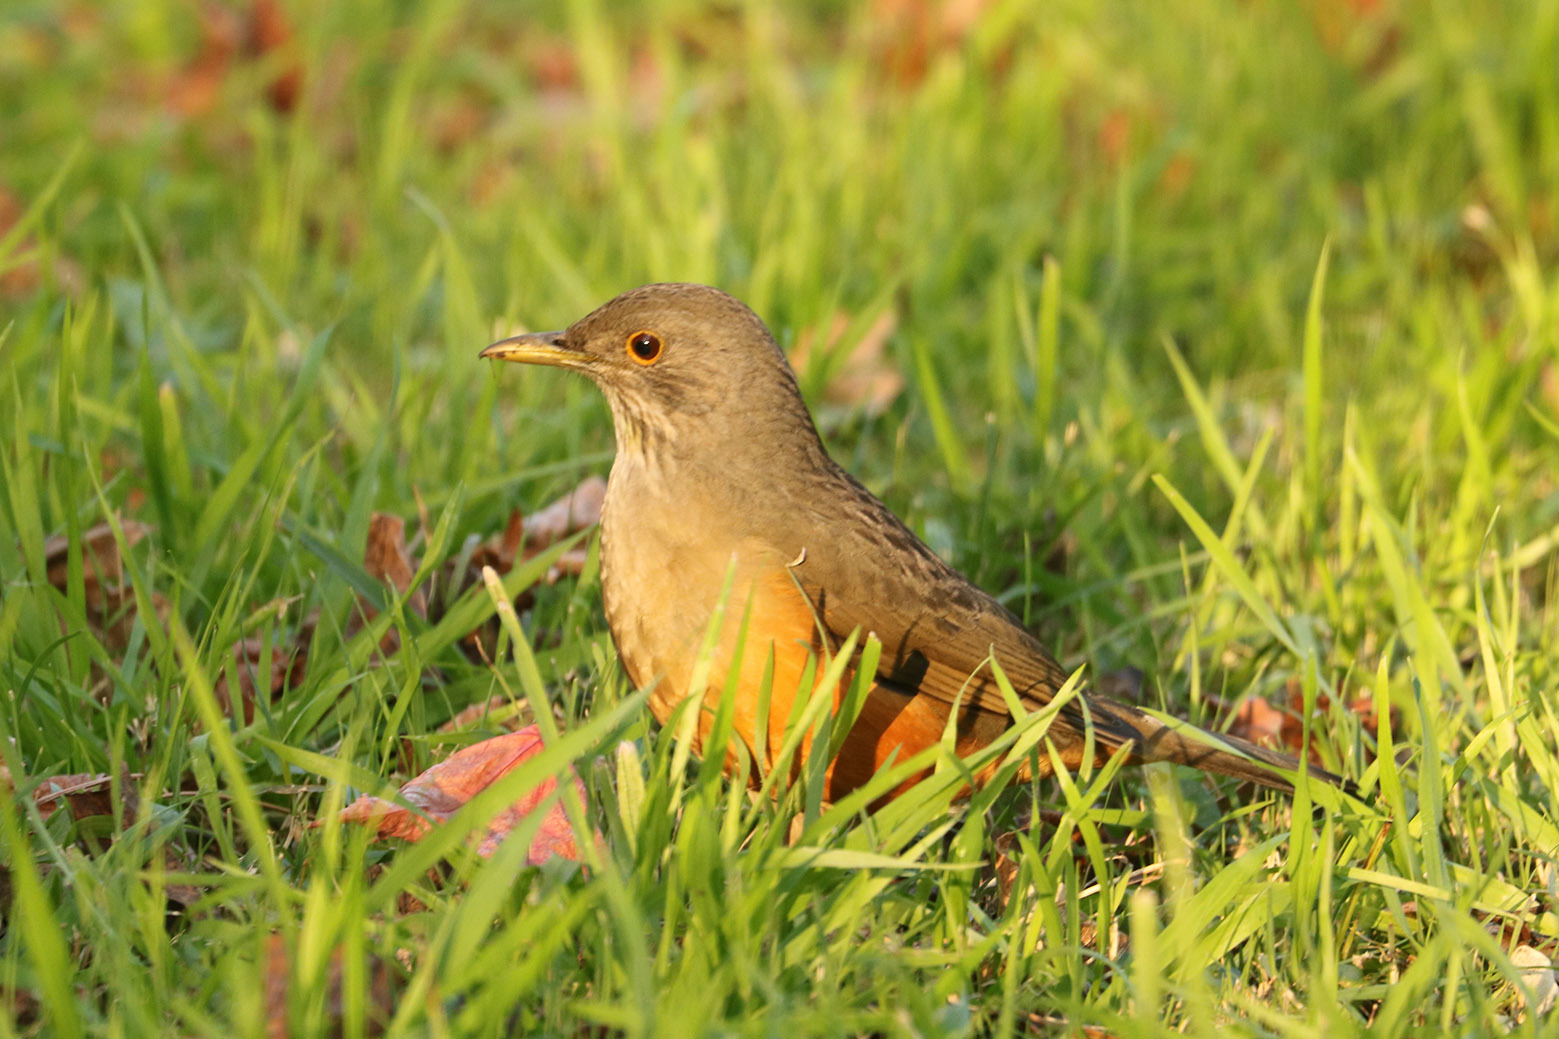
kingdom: Animalia
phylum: Chordata
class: Aves
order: Passeriformes
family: Turdidae
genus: Turdus
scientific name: Turdus rufiventris
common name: Rufous-bellied thrush
